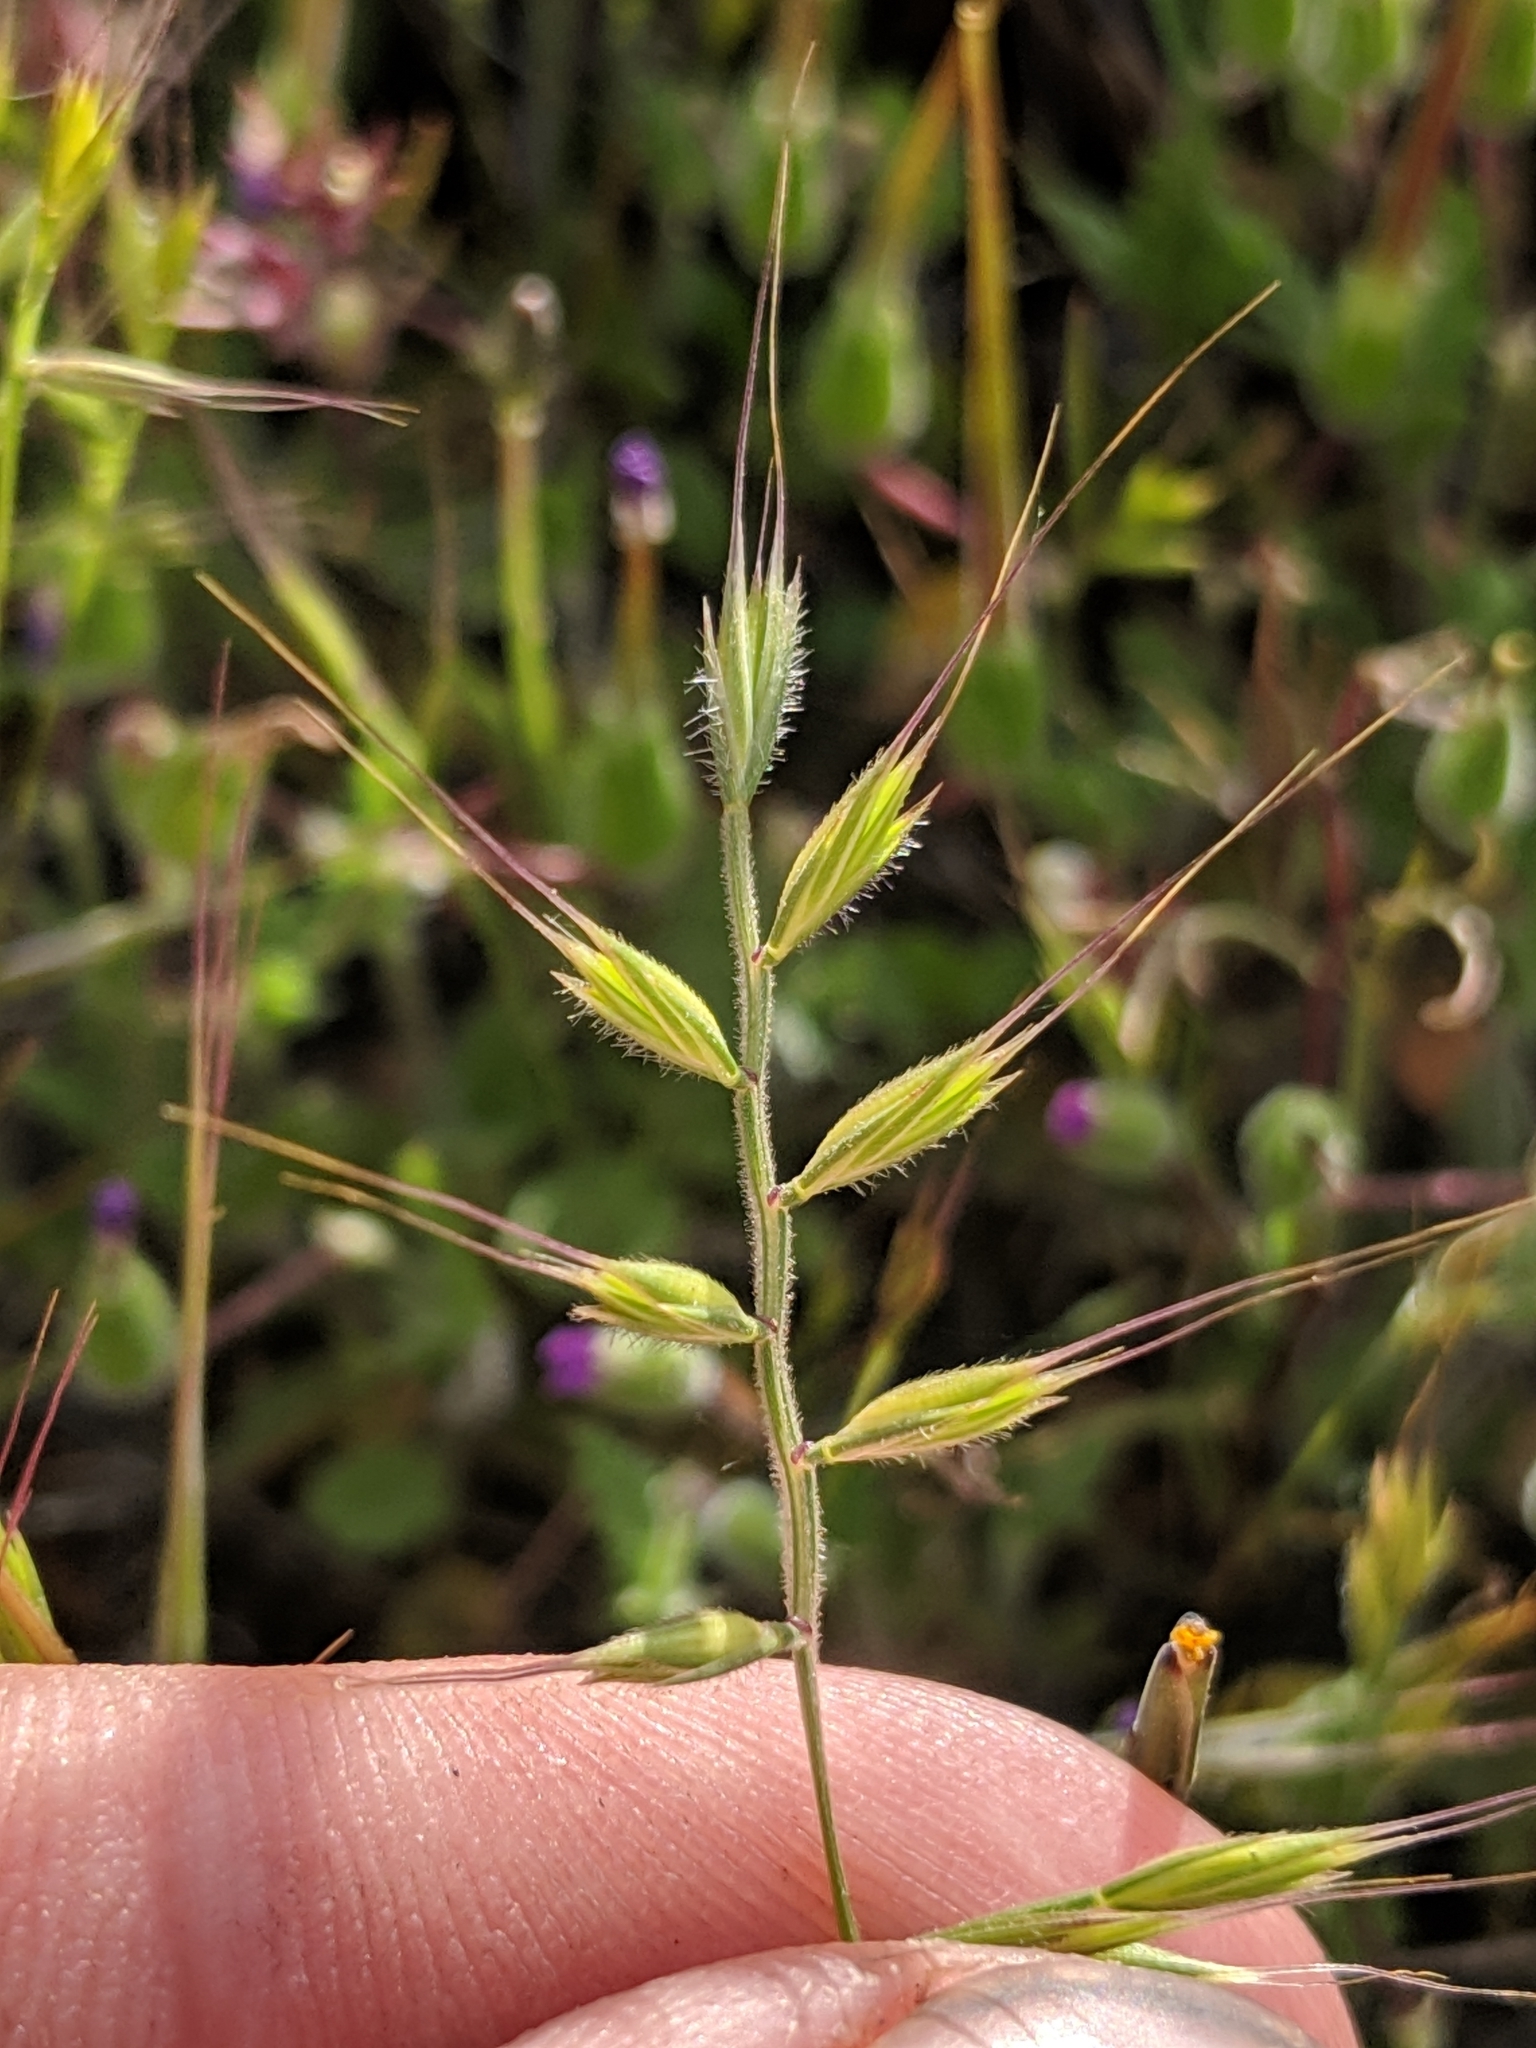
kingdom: Plantae
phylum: Tracheophyta
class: Liliopsida
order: Poales
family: Poaceae
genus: Festuca
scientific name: Festuca microstachys
